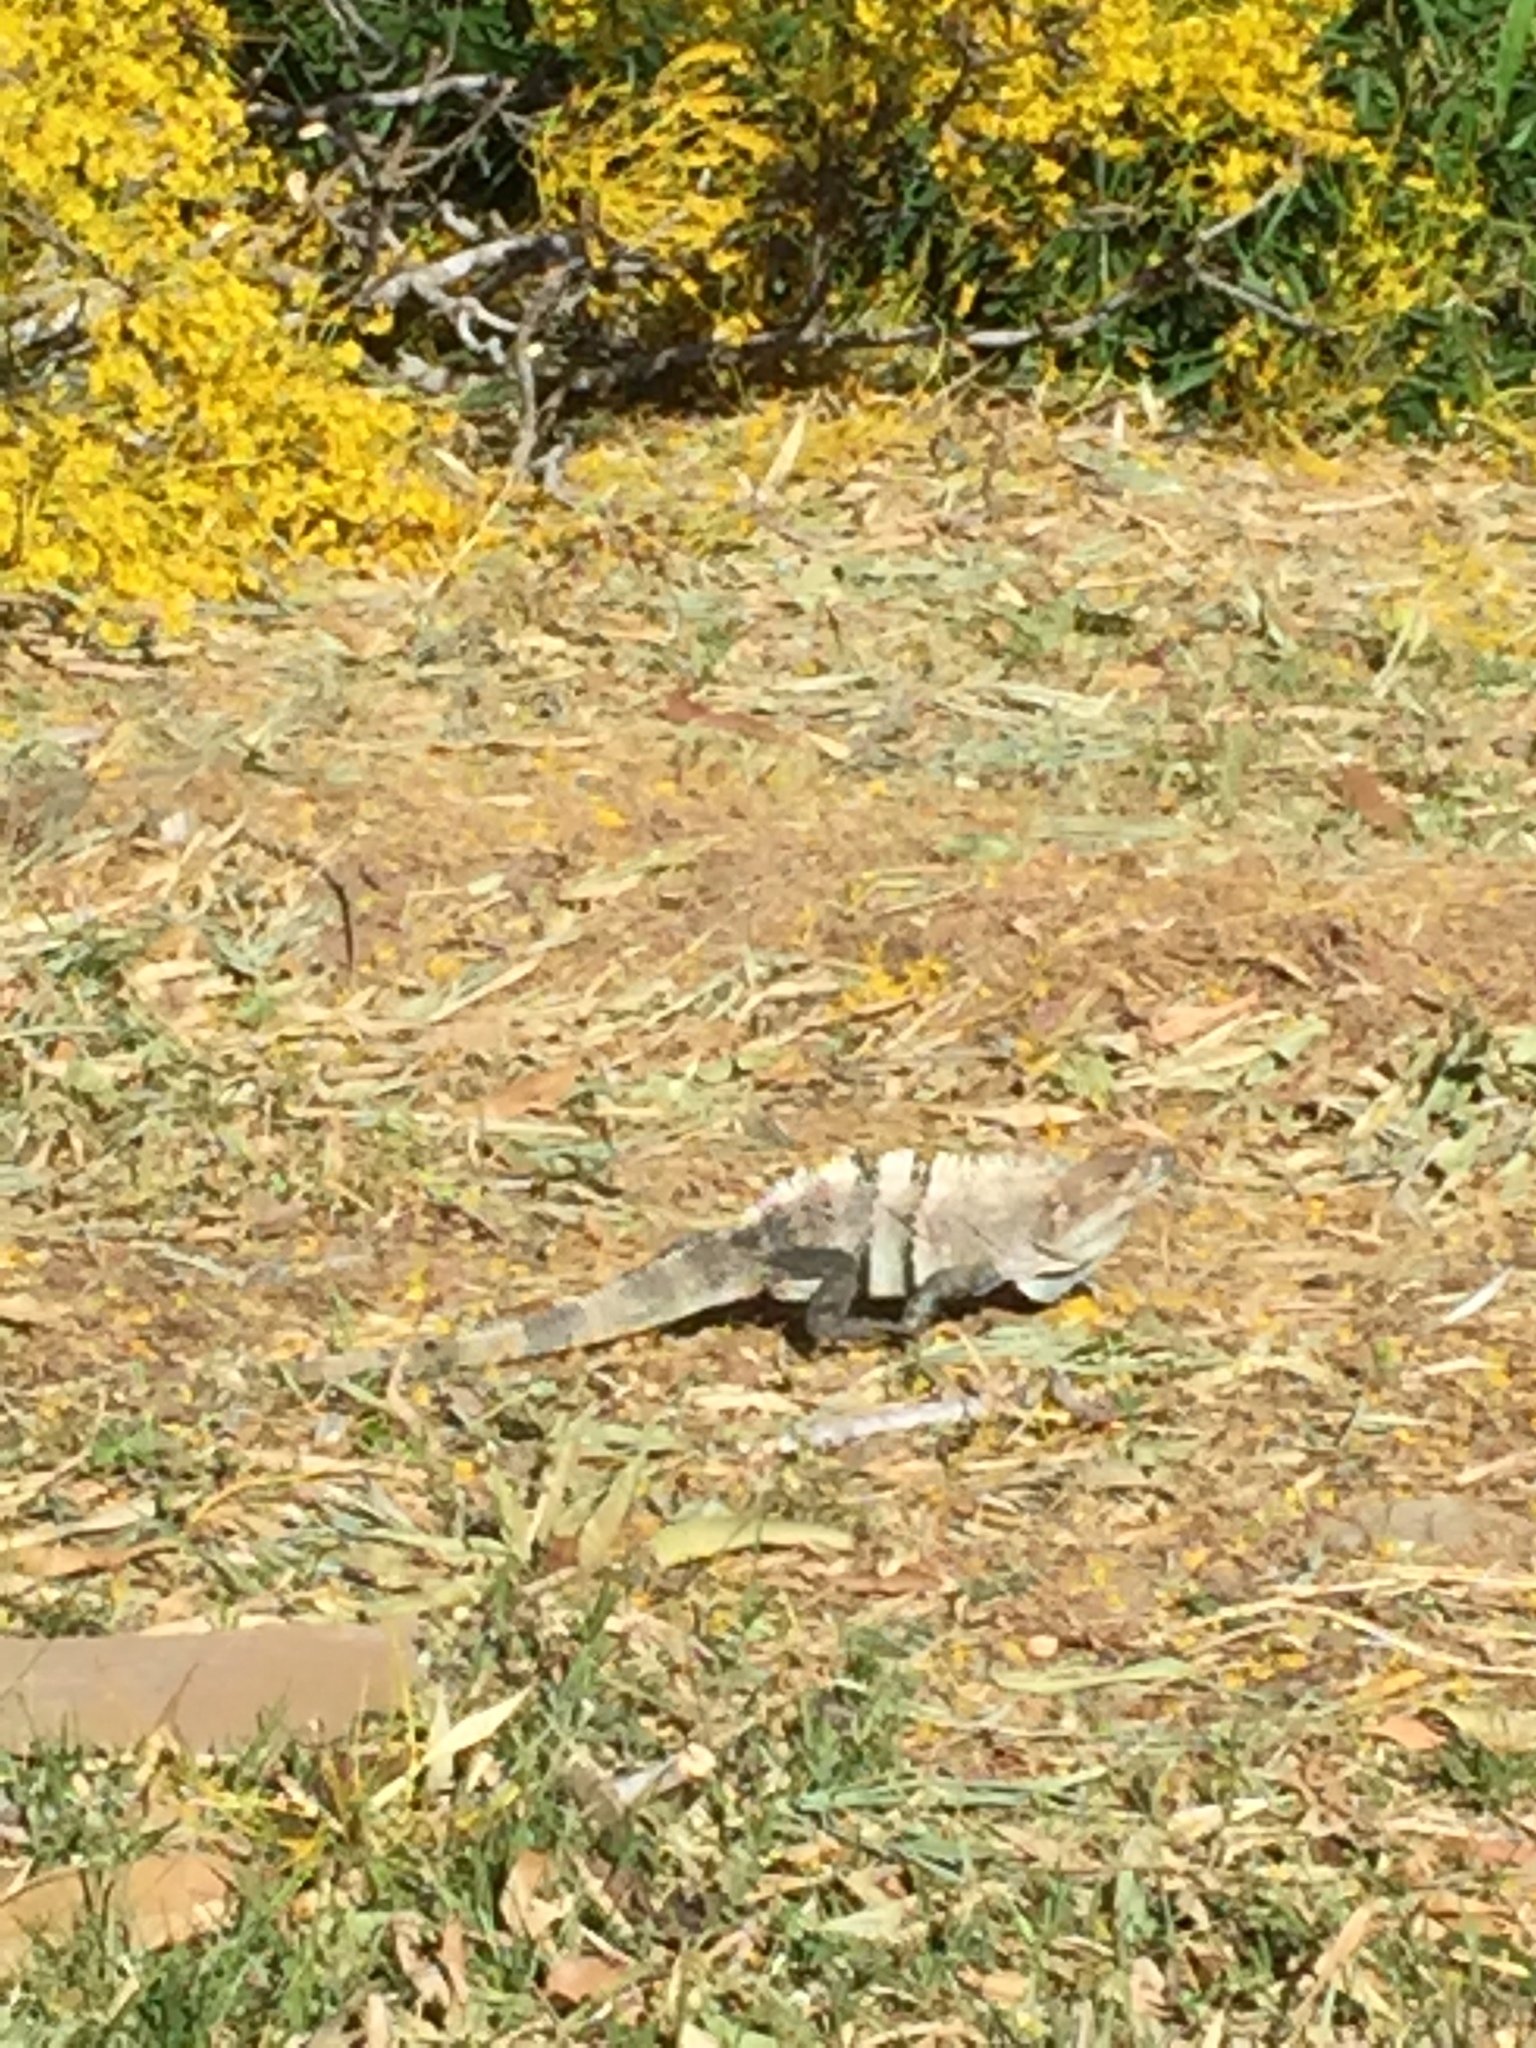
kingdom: Animalia
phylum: Chordata
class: Squamata
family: Iguanidae
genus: Ctenosaura
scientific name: Ctenosaura similis
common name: Black spiny-tailed iguana
